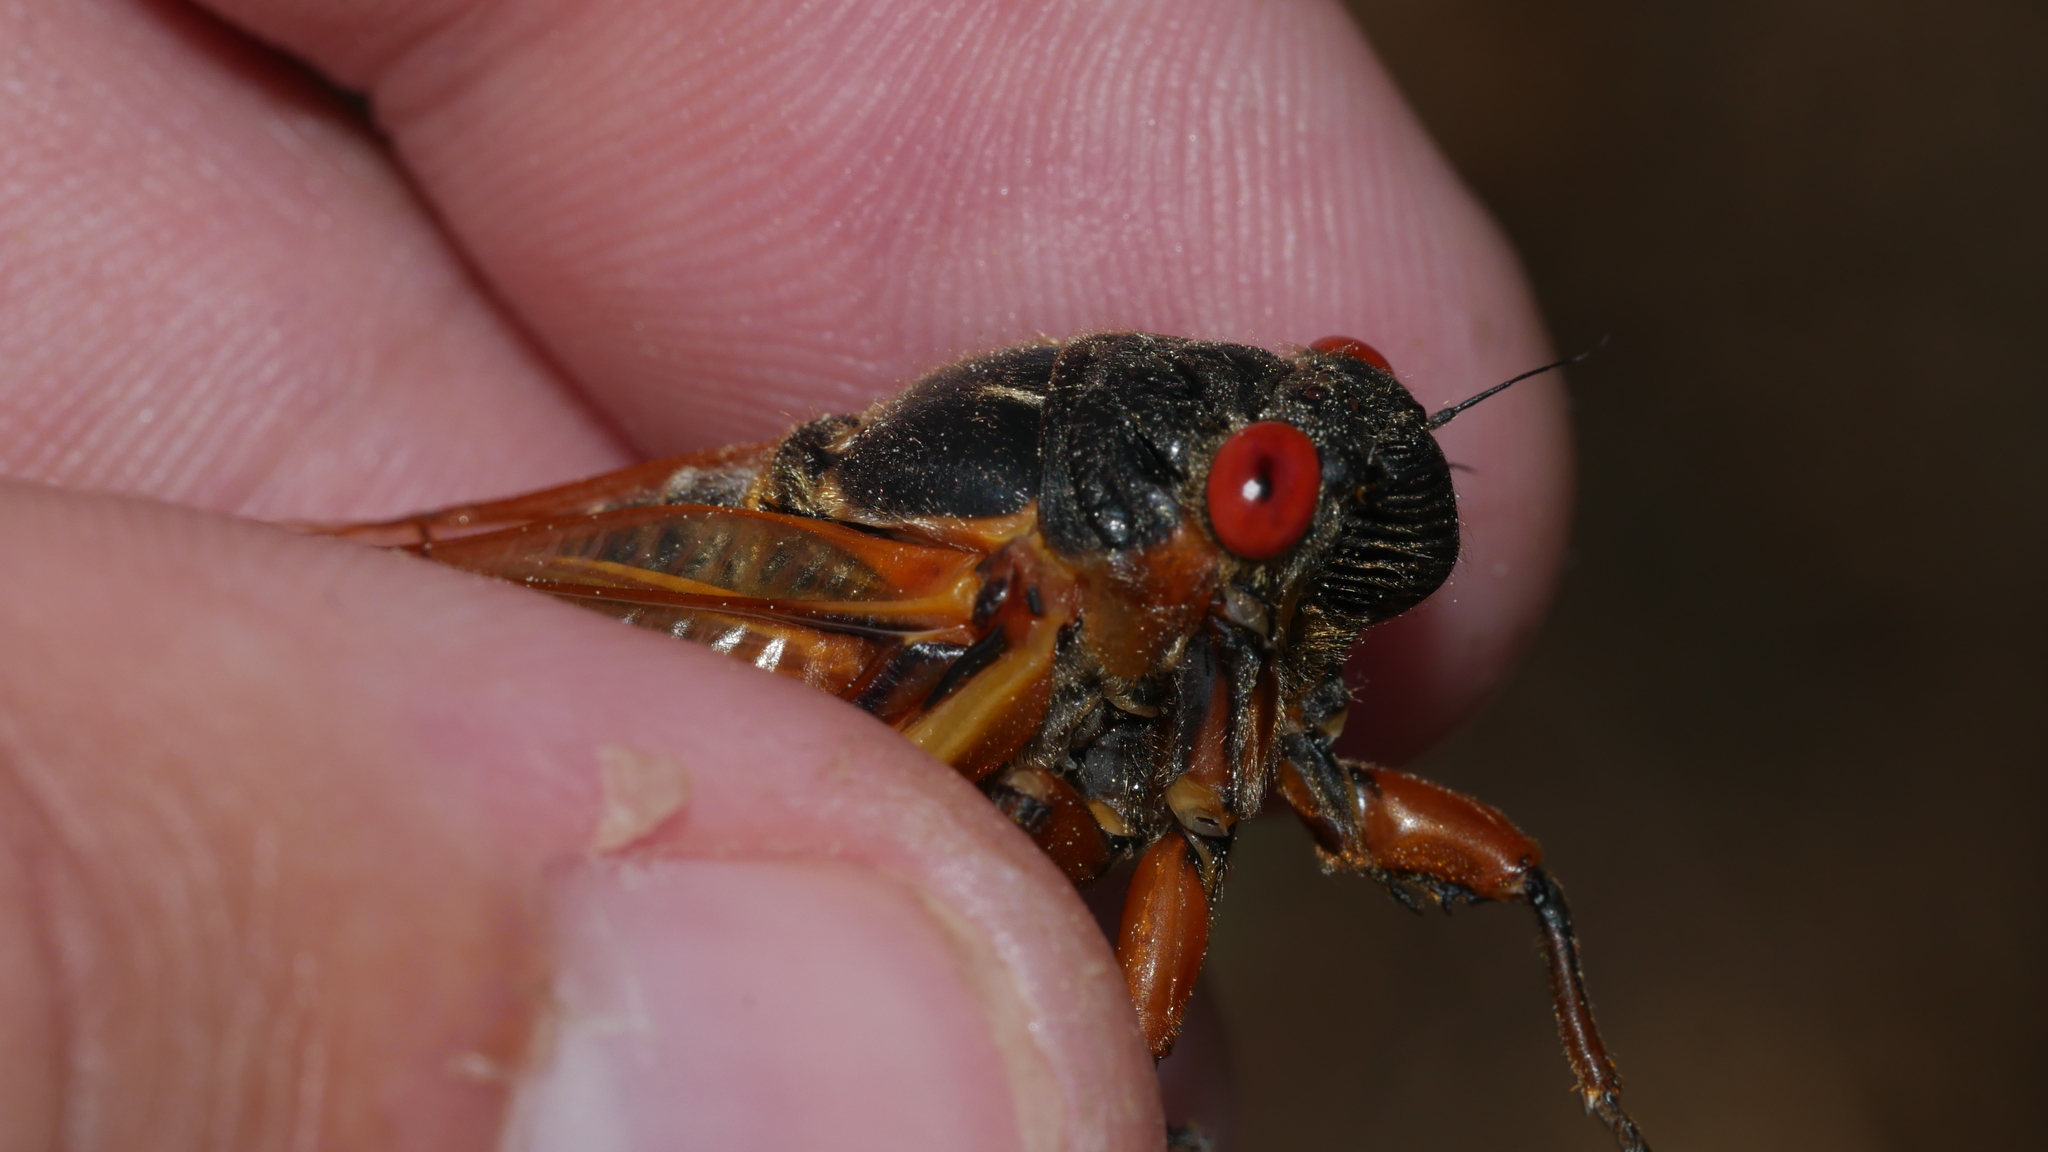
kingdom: Animalia
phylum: Arthropoda
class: Insecta
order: Hemiptera
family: Cicadidae
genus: Magicicada
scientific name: Magicicada septendecim
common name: Periodical cicada
